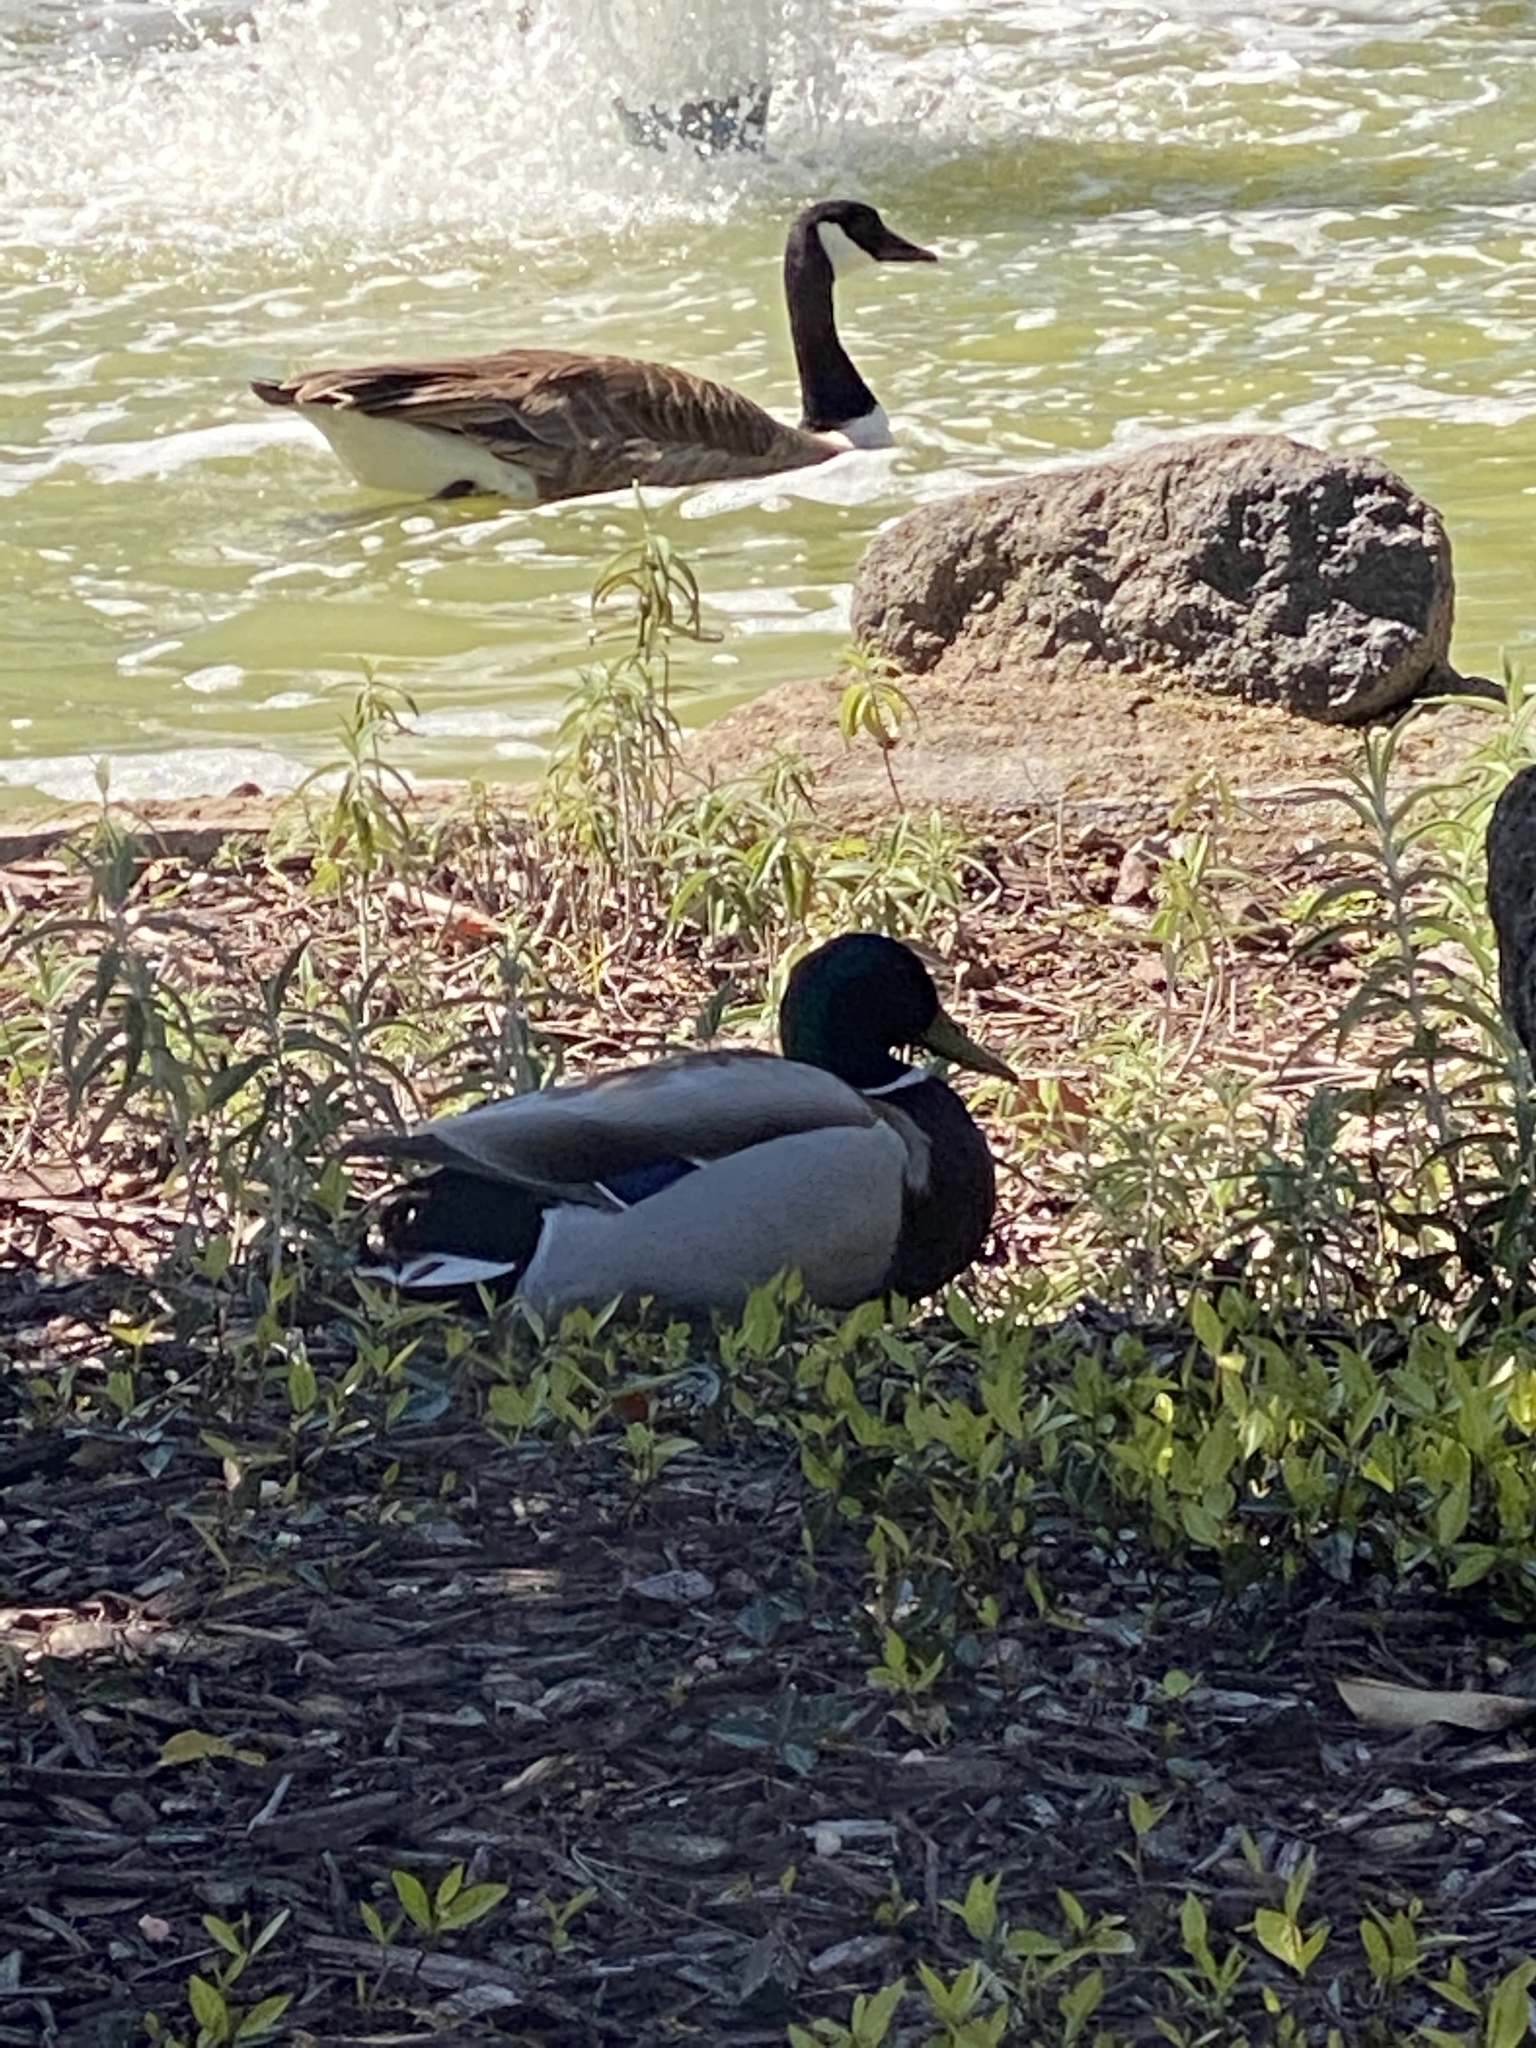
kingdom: Animalia
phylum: Chordata
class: Aves
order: Anseriformes
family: Anatidae
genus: Anas
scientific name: Anas platyrhynchos
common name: Mallard
